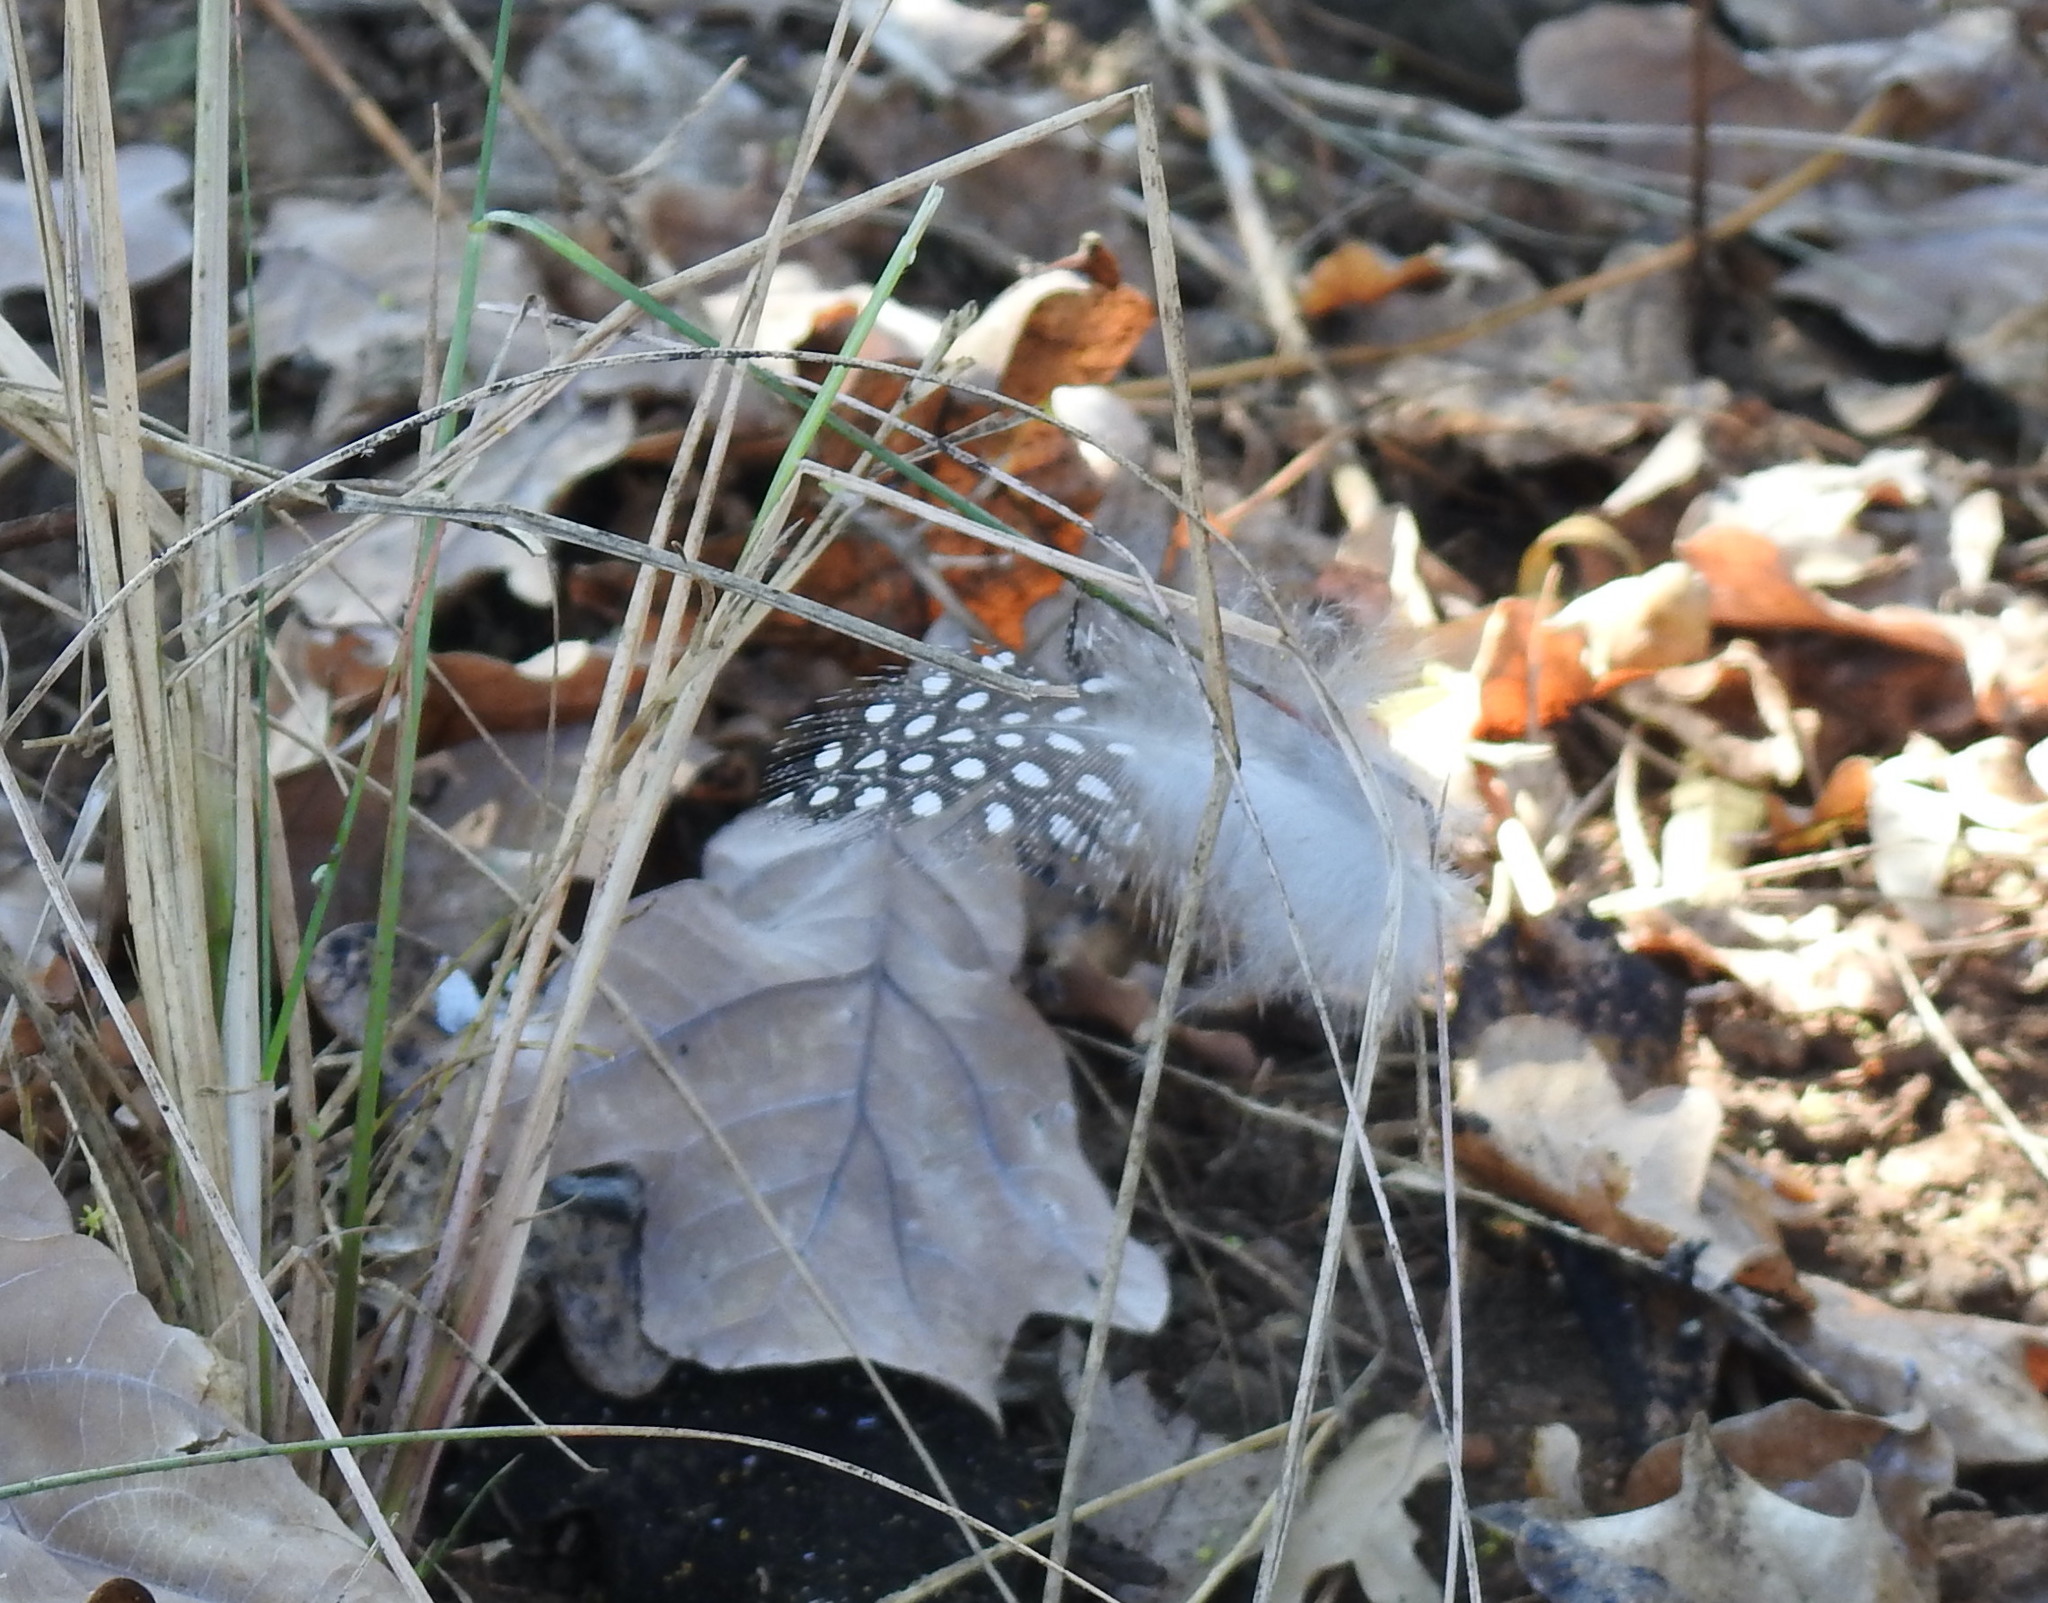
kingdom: Animalia
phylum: Chordata
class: Aves
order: Galliformes
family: Numididae
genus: Numida
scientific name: Numida meleagris
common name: Helmeted guineafowl
